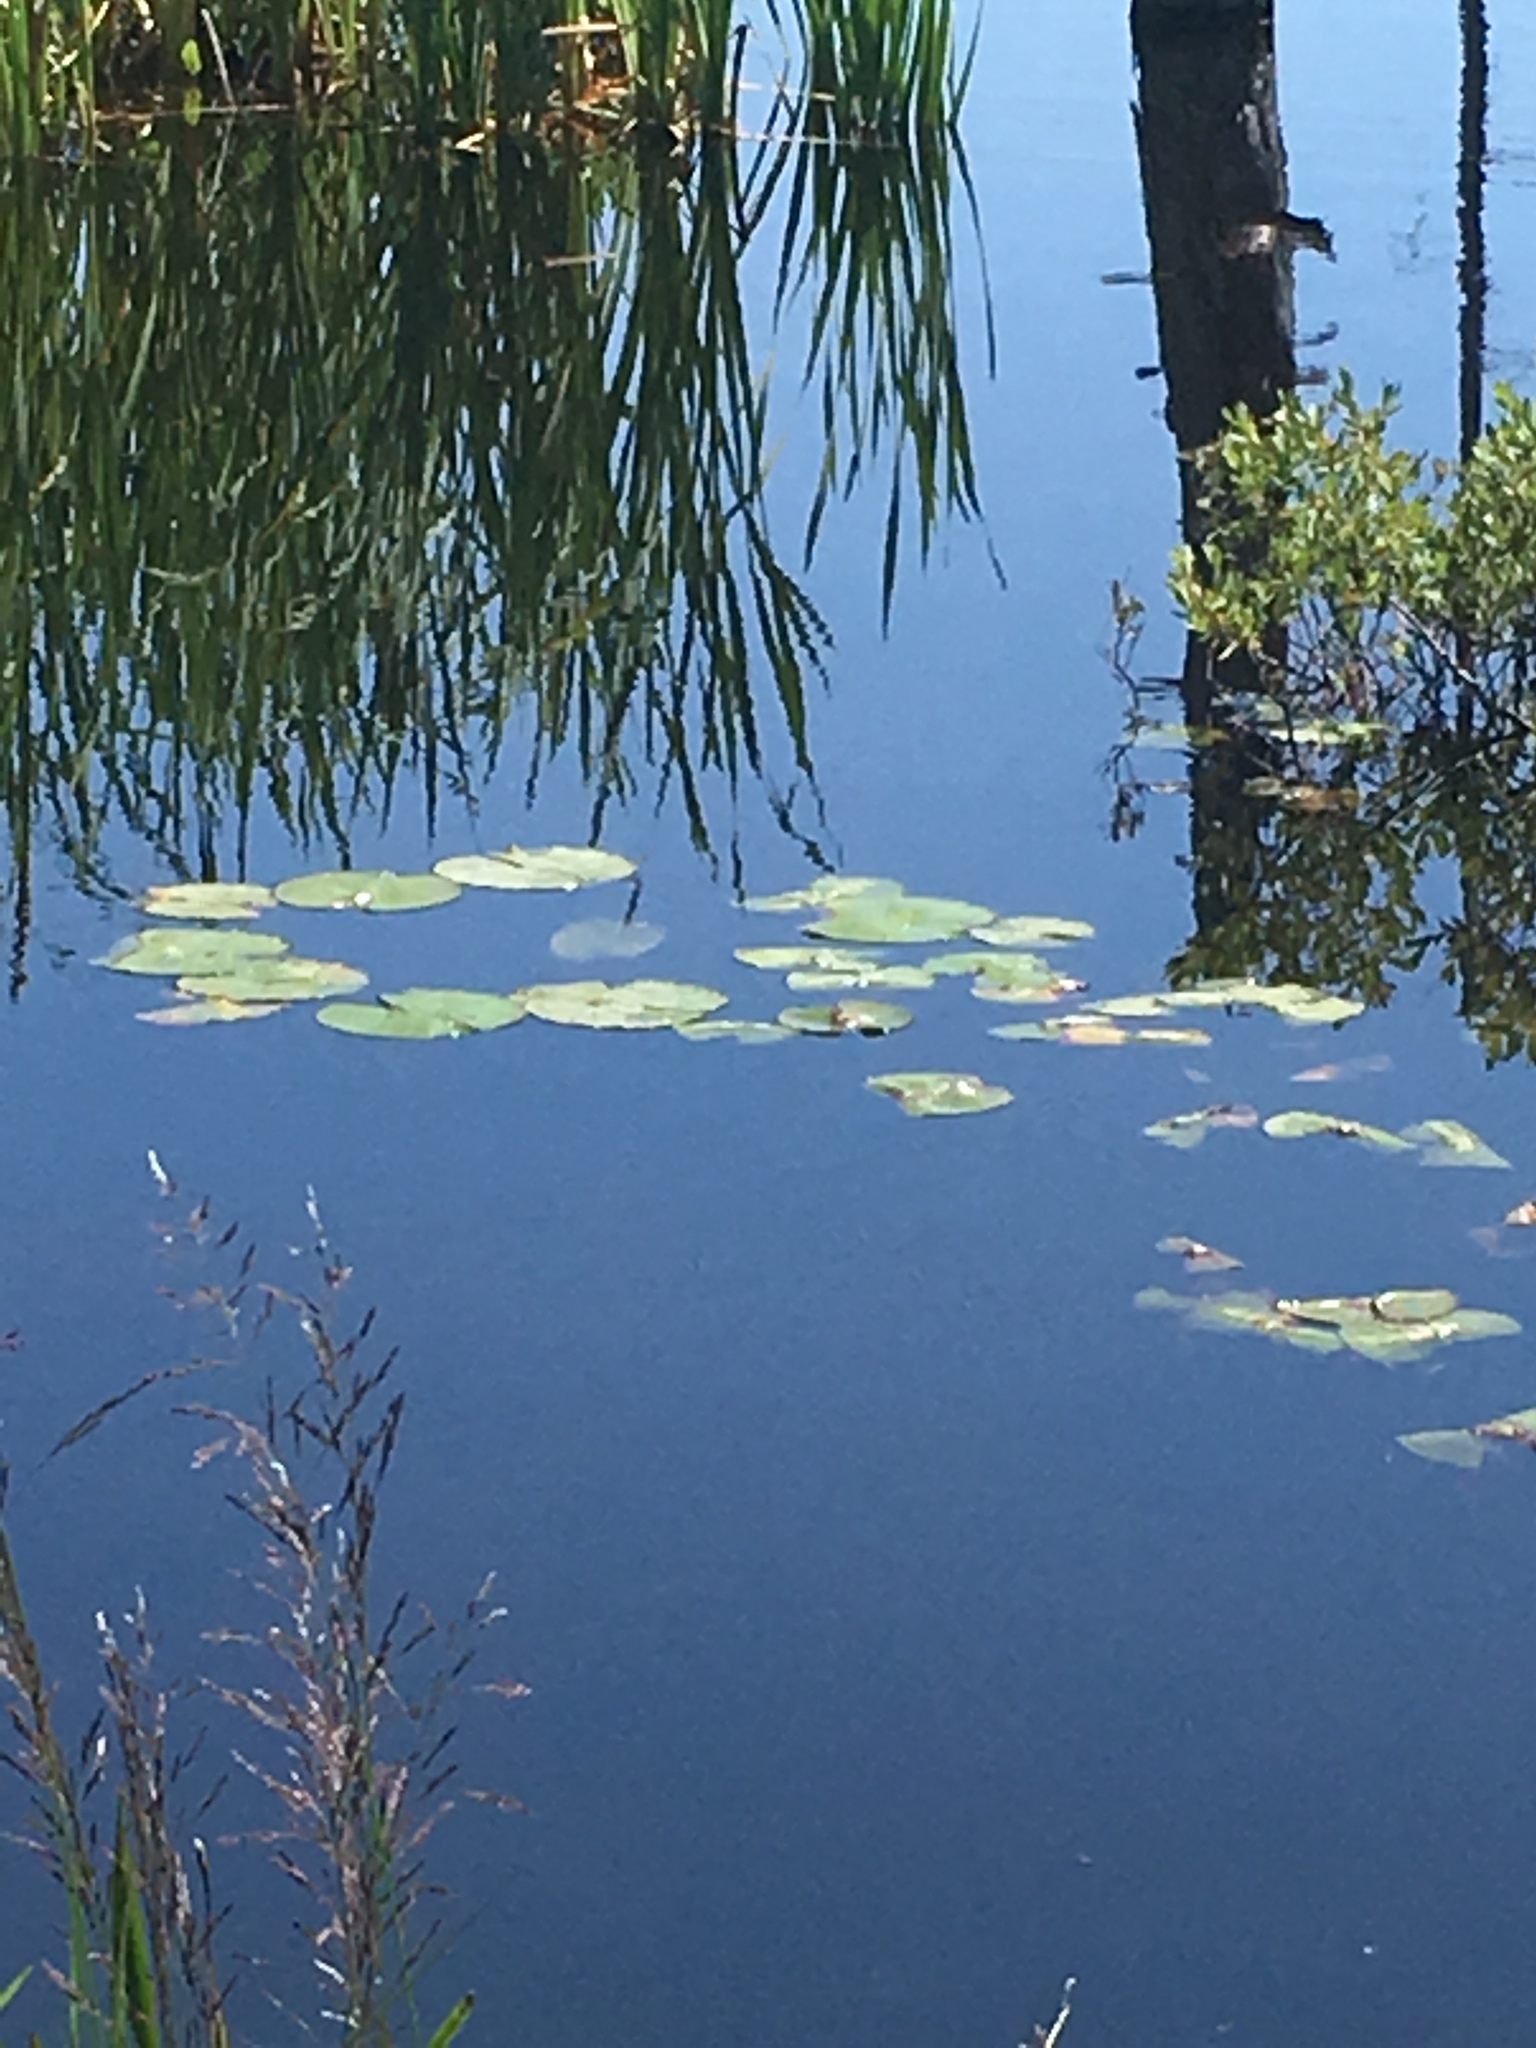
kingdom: Plantae
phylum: Tracheophyta
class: Magnoliopsida
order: Nymphaeales
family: Nymphaeaceae
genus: Nymphaea
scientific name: Nymphaea odorata
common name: Fragrant water-lily
